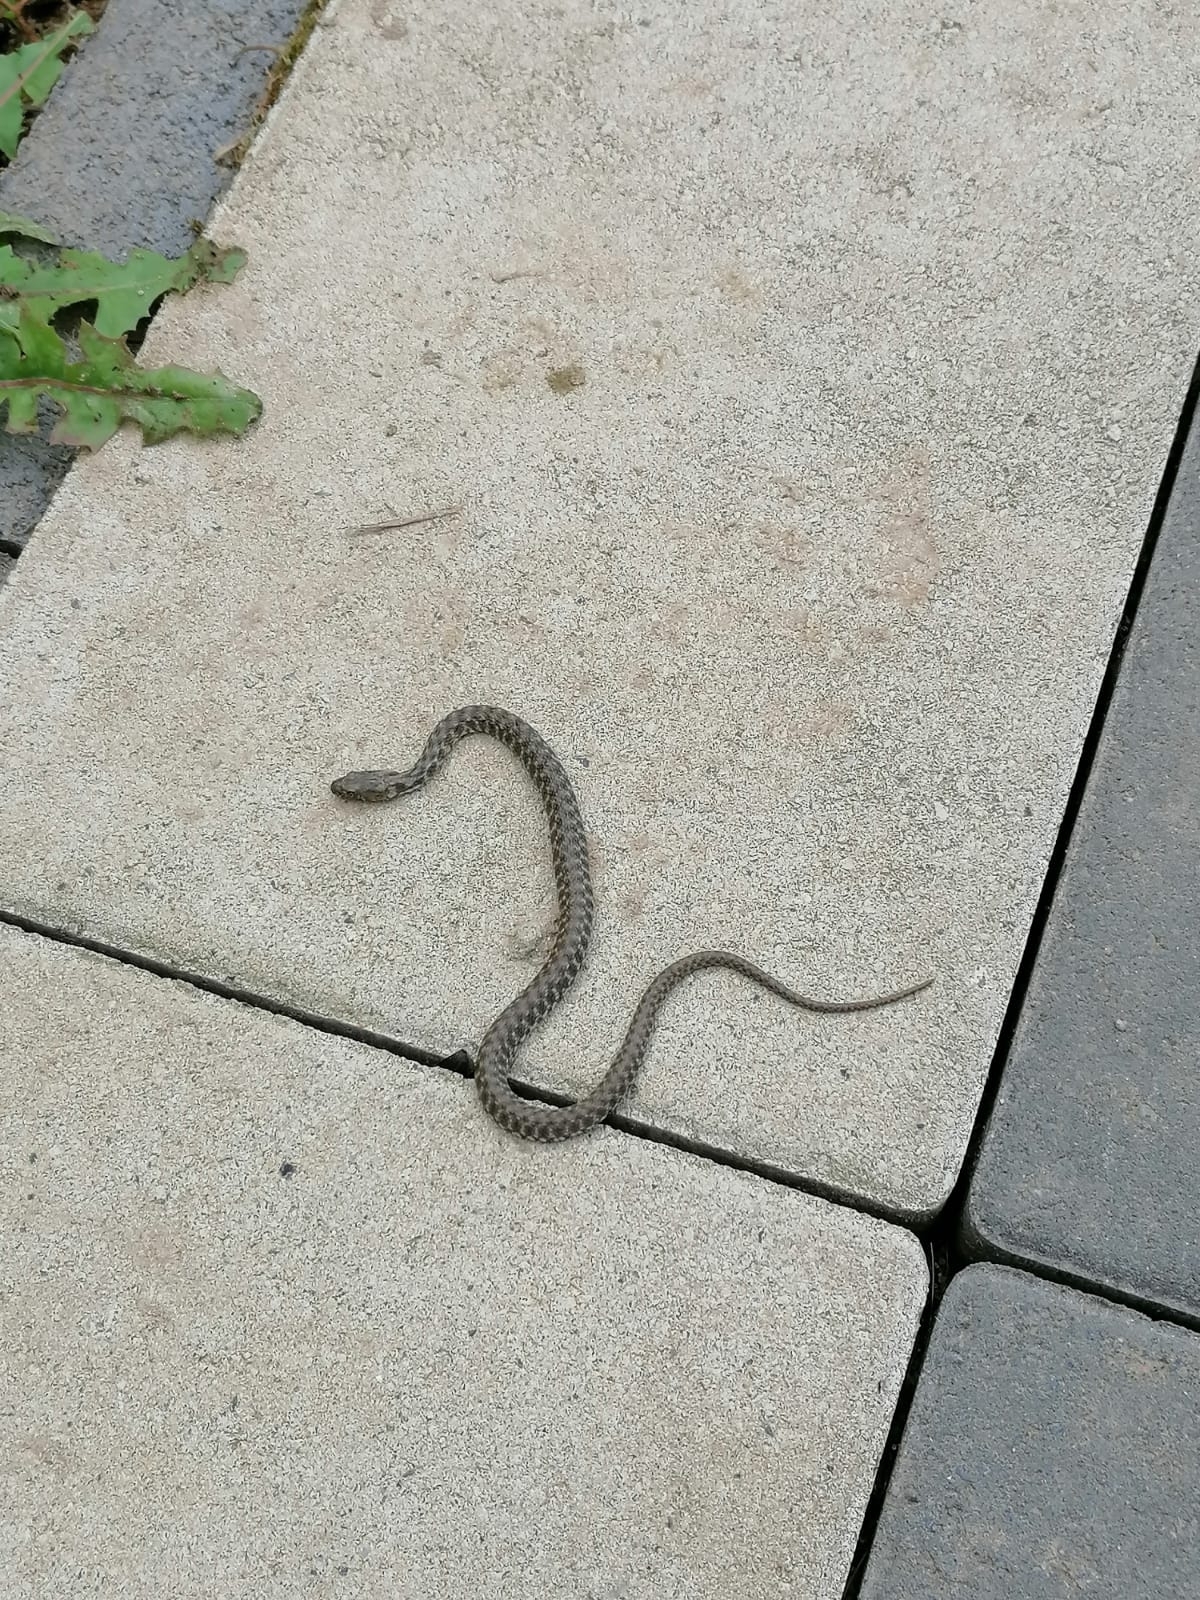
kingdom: Animalia
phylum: Chordata
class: Squamata
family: Colubridae
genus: Natrix
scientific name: Natrix tessellata
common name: Dice snake
